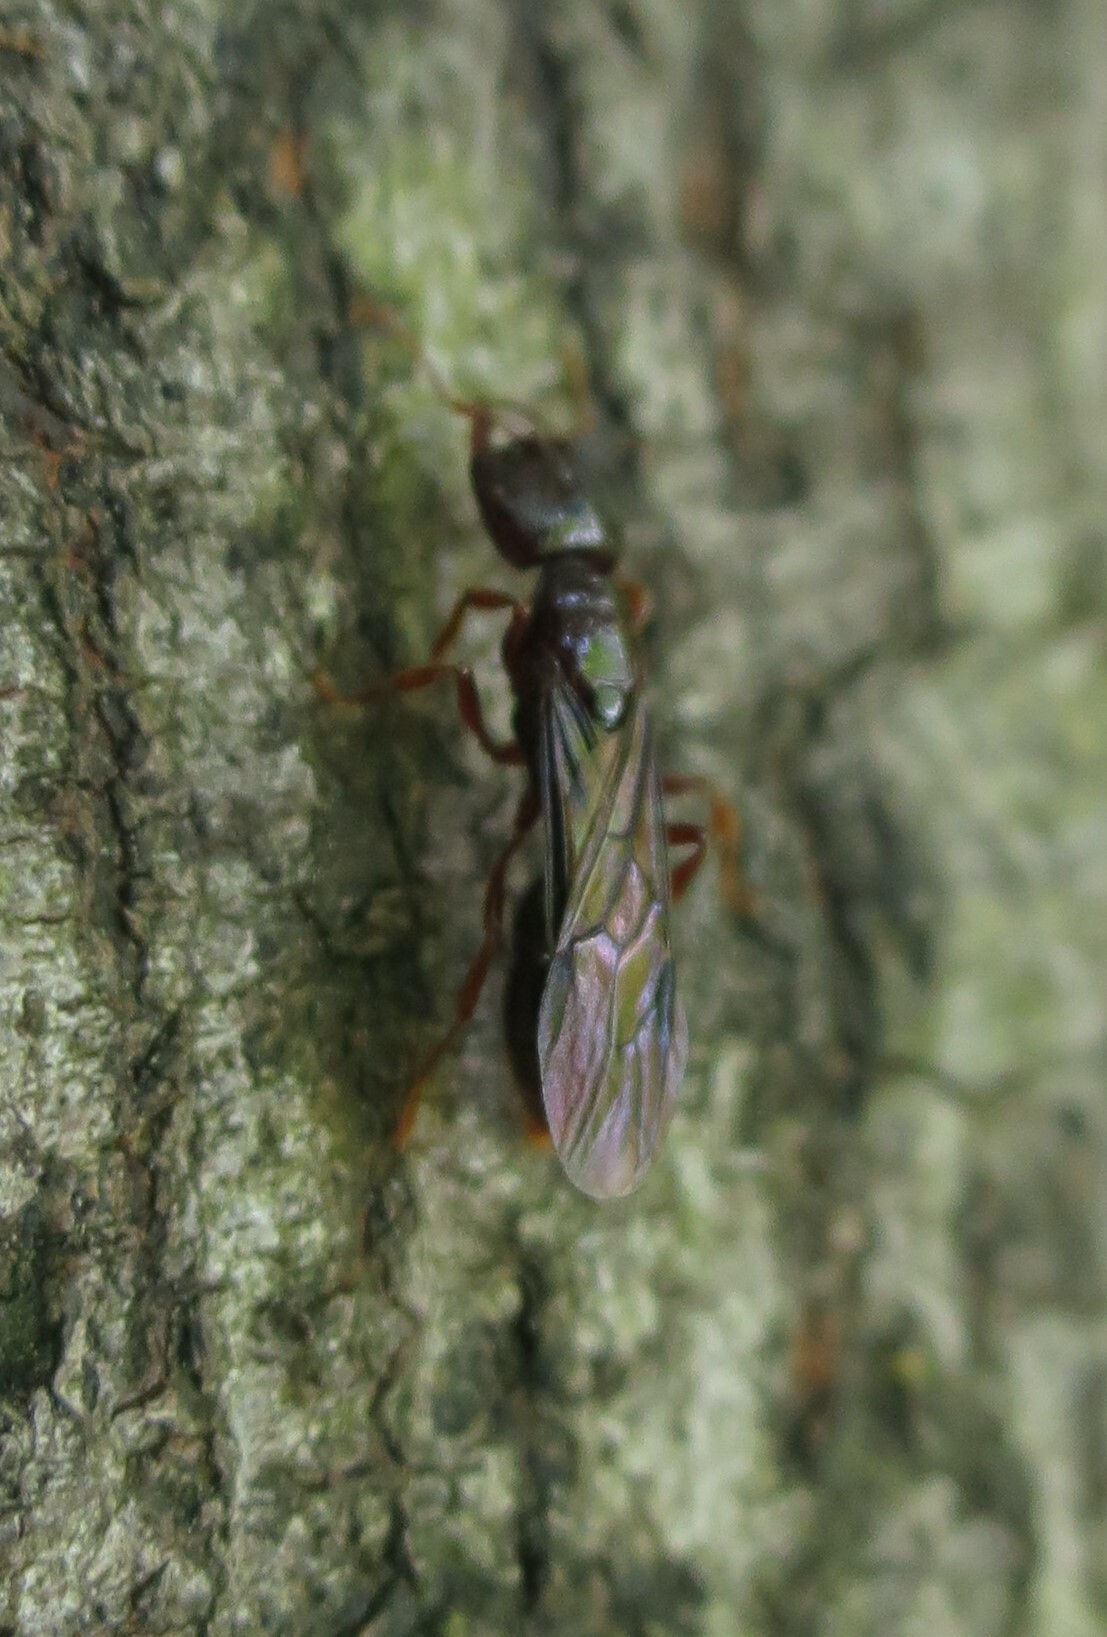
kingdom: Animalia
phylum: Arthropoda
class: Insecta
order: Hymenoptera
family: Formicidae
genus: Amblyopone
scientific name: Amblyopone australis
